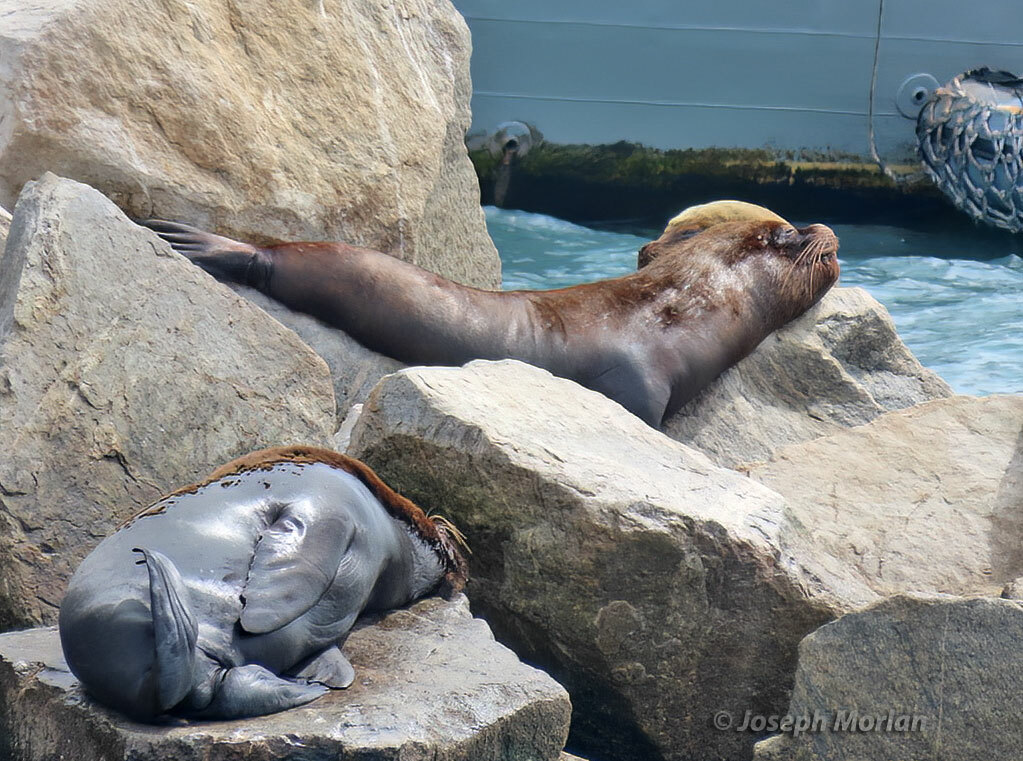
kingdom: Animalia
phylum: Chordata
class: Mammalia
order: Carnivora
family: Otariidae
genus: Otaria
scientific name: Otaria byronia
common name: South american sea lion
